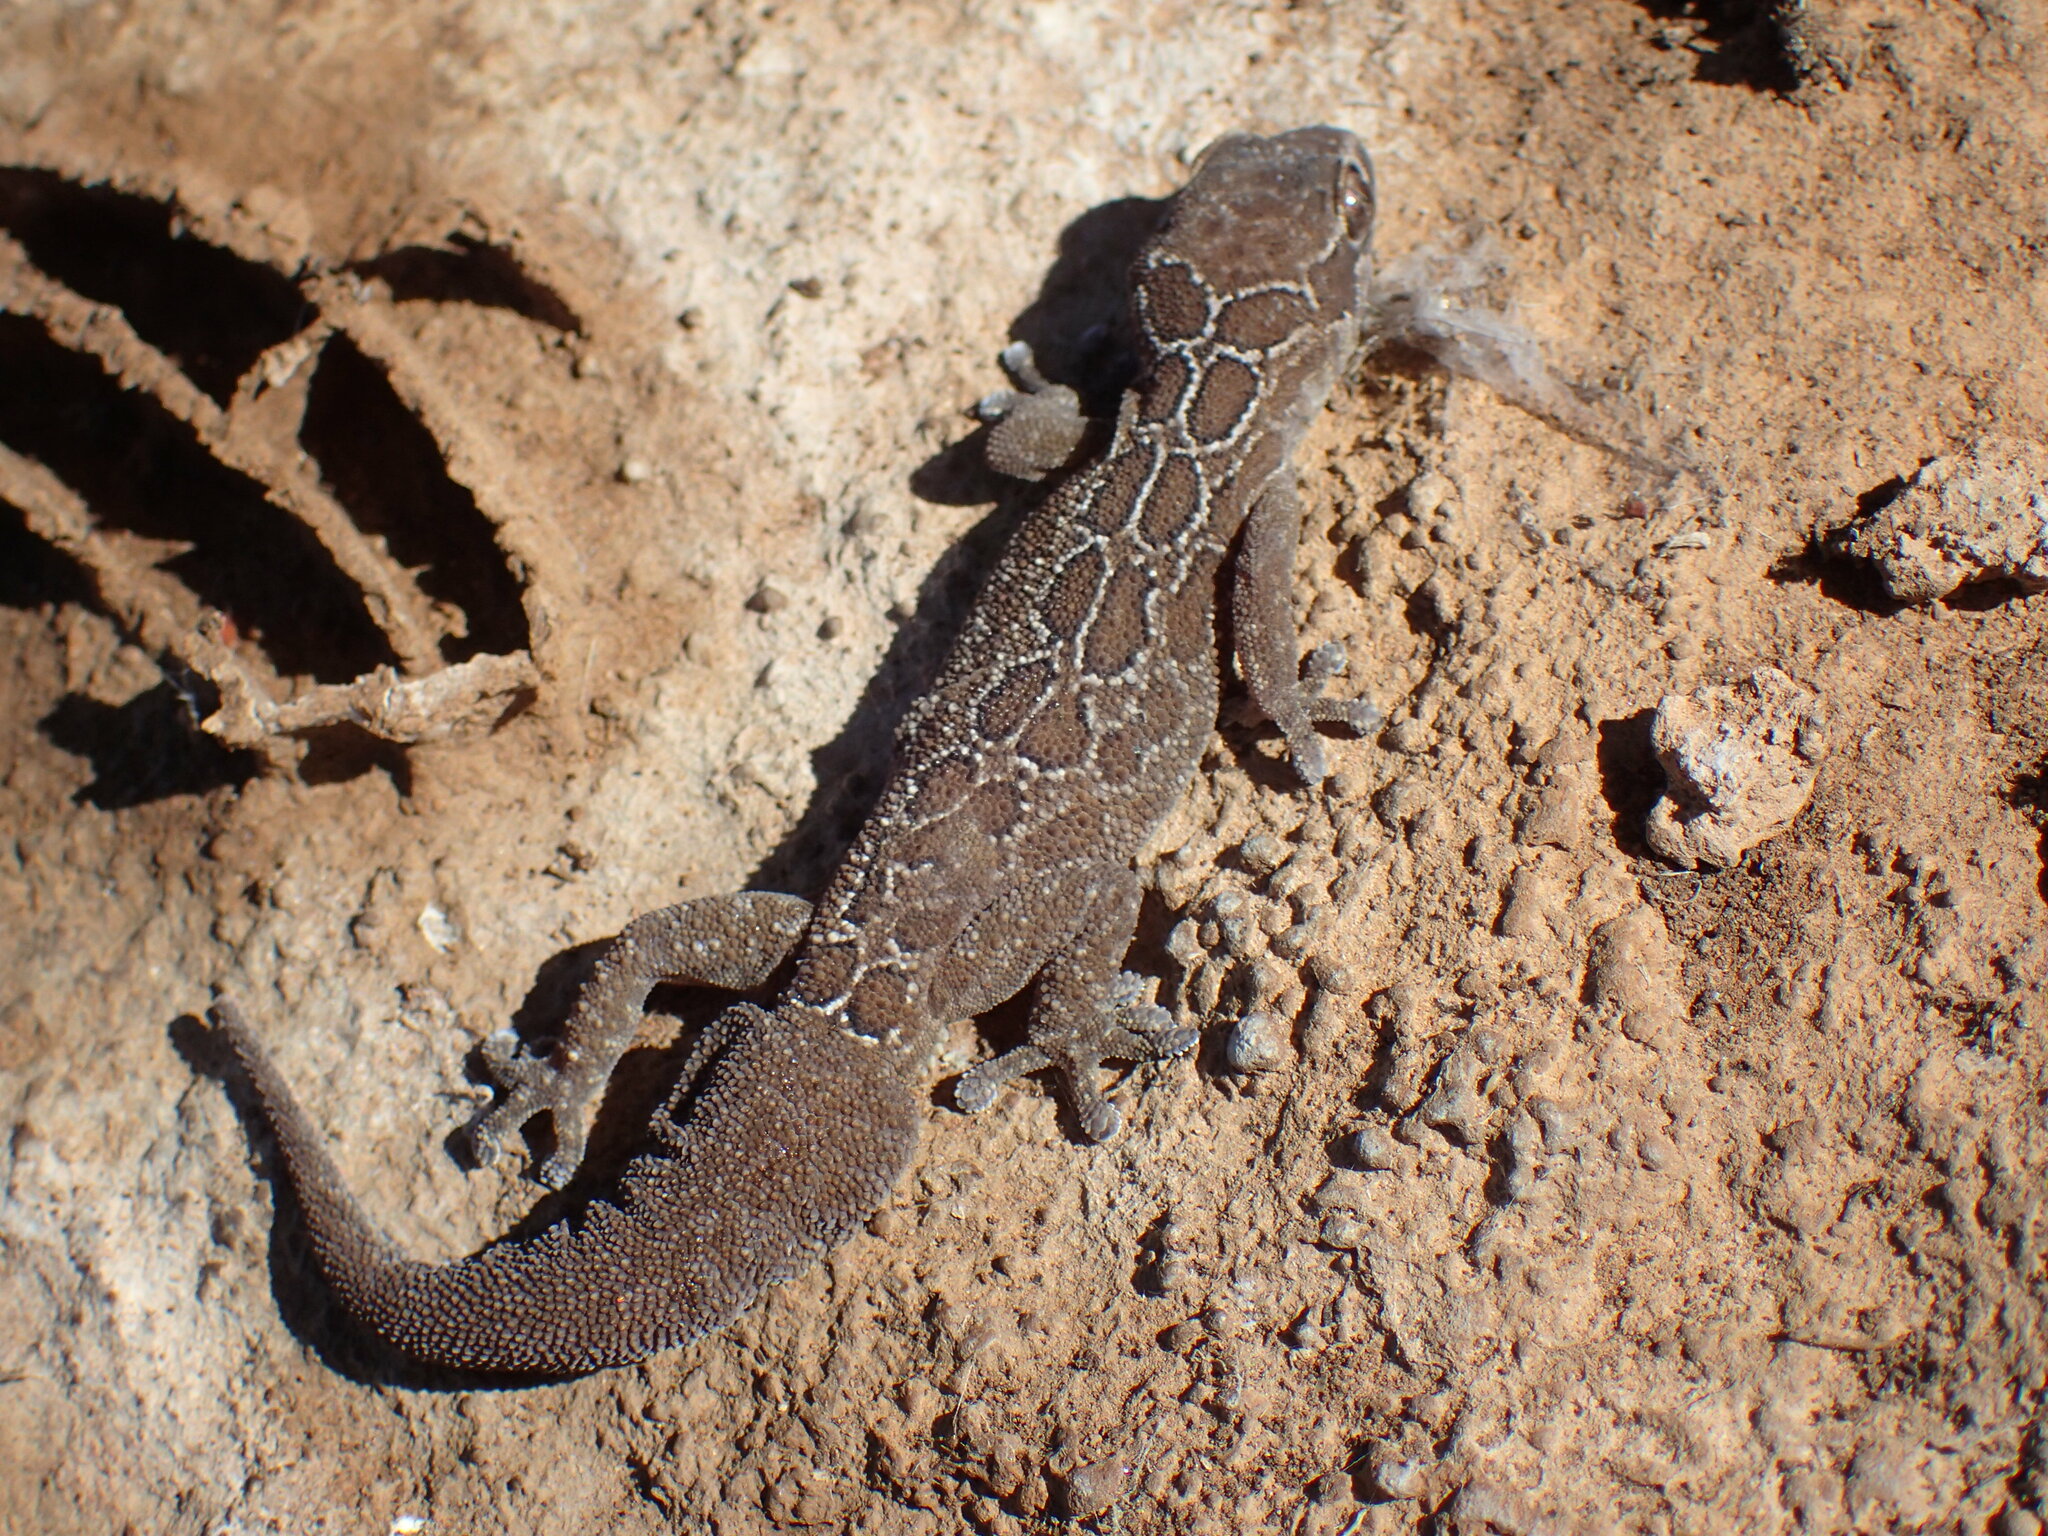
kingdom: Animalia
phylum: Chordata
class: Squamata
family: Gekkonidae
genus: Pachydactylus
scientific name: Pachydactylus oculatus
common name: Golden spotted gecko
